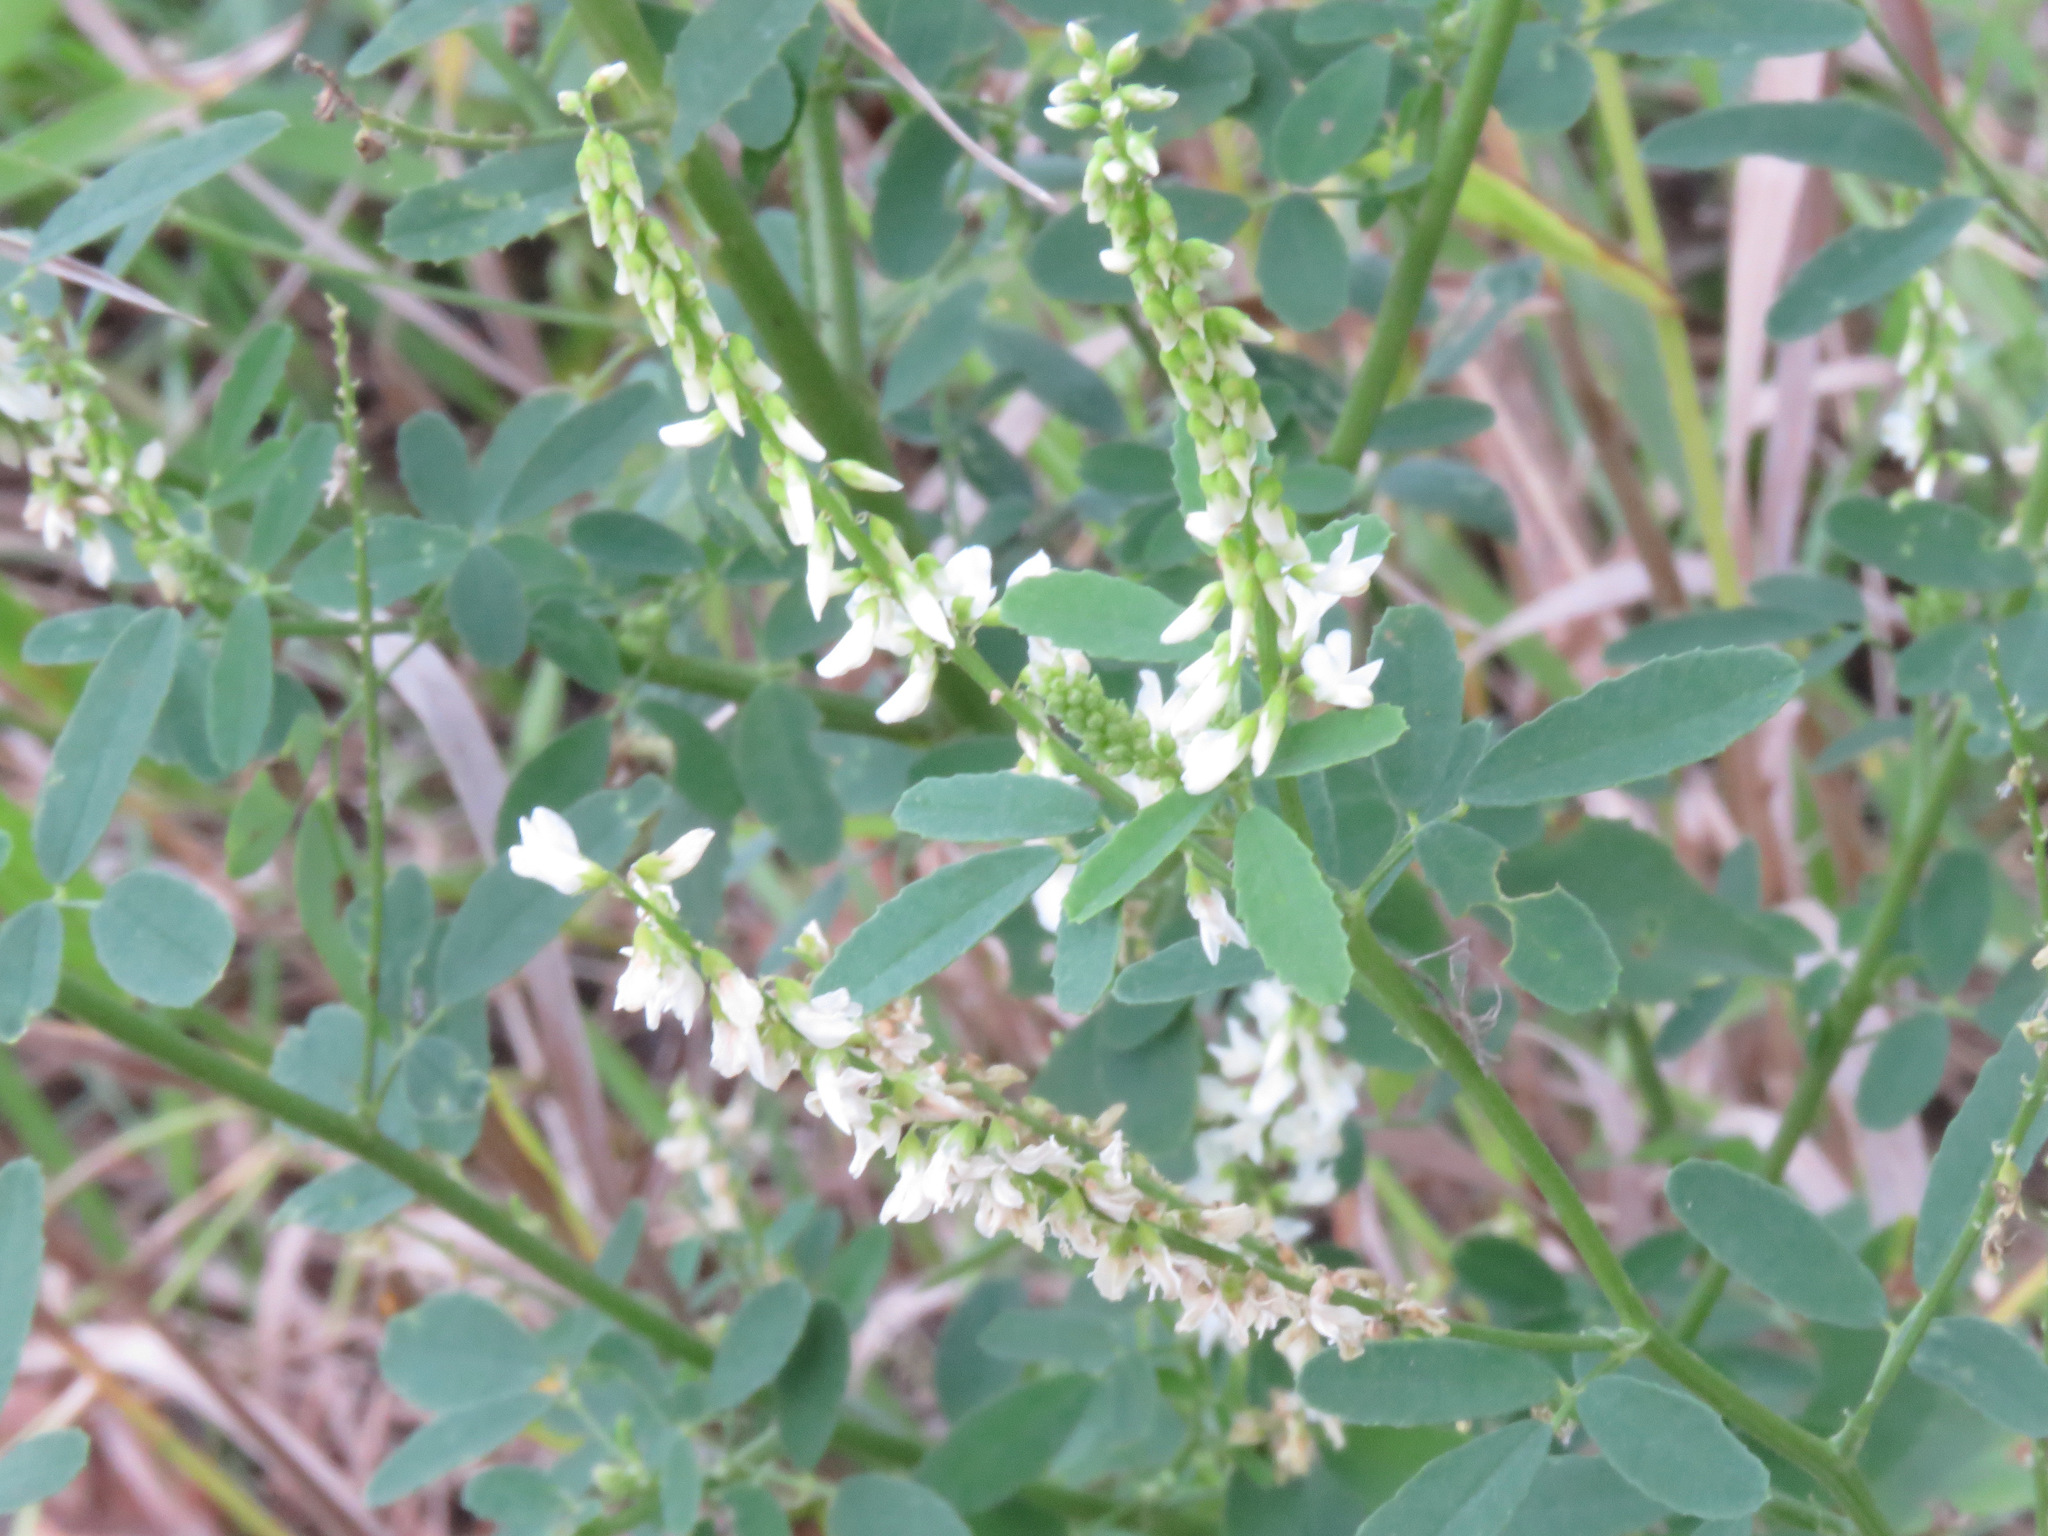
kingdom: Plantae
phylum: Tracheophyta
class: Magnoliopsida
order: Fabales
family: Fabaceae
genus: Melilotus
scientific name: Melilotus albus
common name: White melilot
